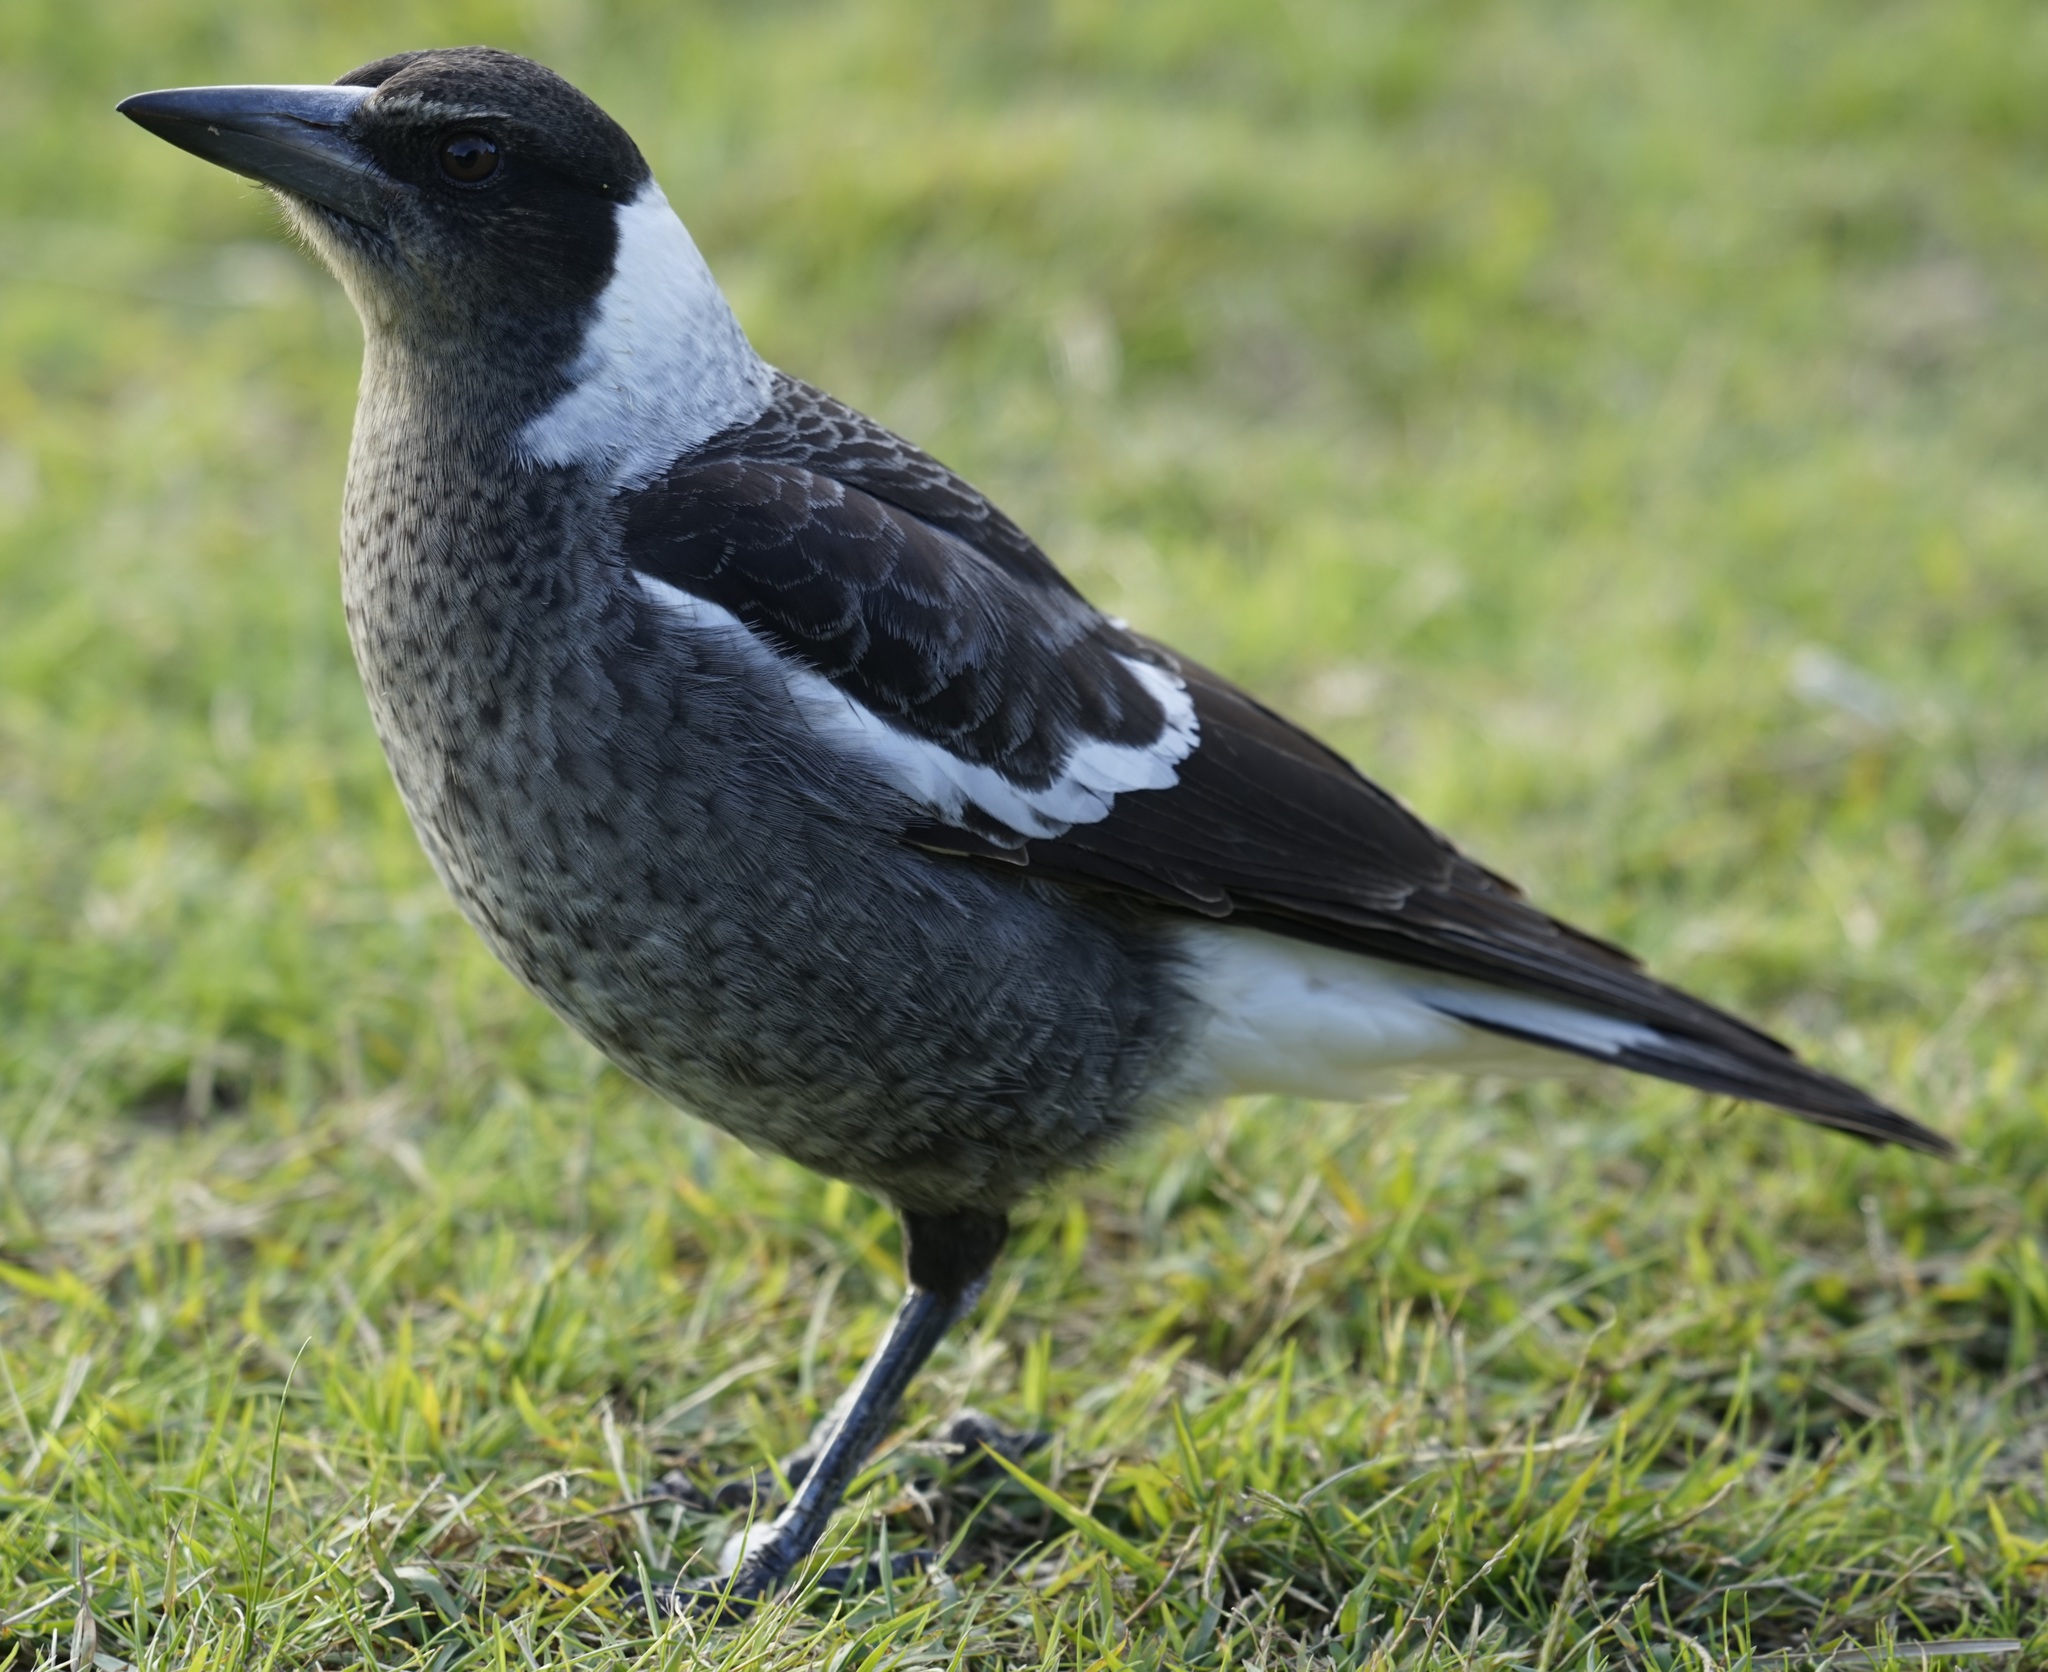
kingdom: Animalia
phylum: Chordata
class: Aves
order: Passeriformes
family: Cracticidae
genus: Gymnorhina
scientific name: Gymnorhina tibicen
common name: Australian magpie
